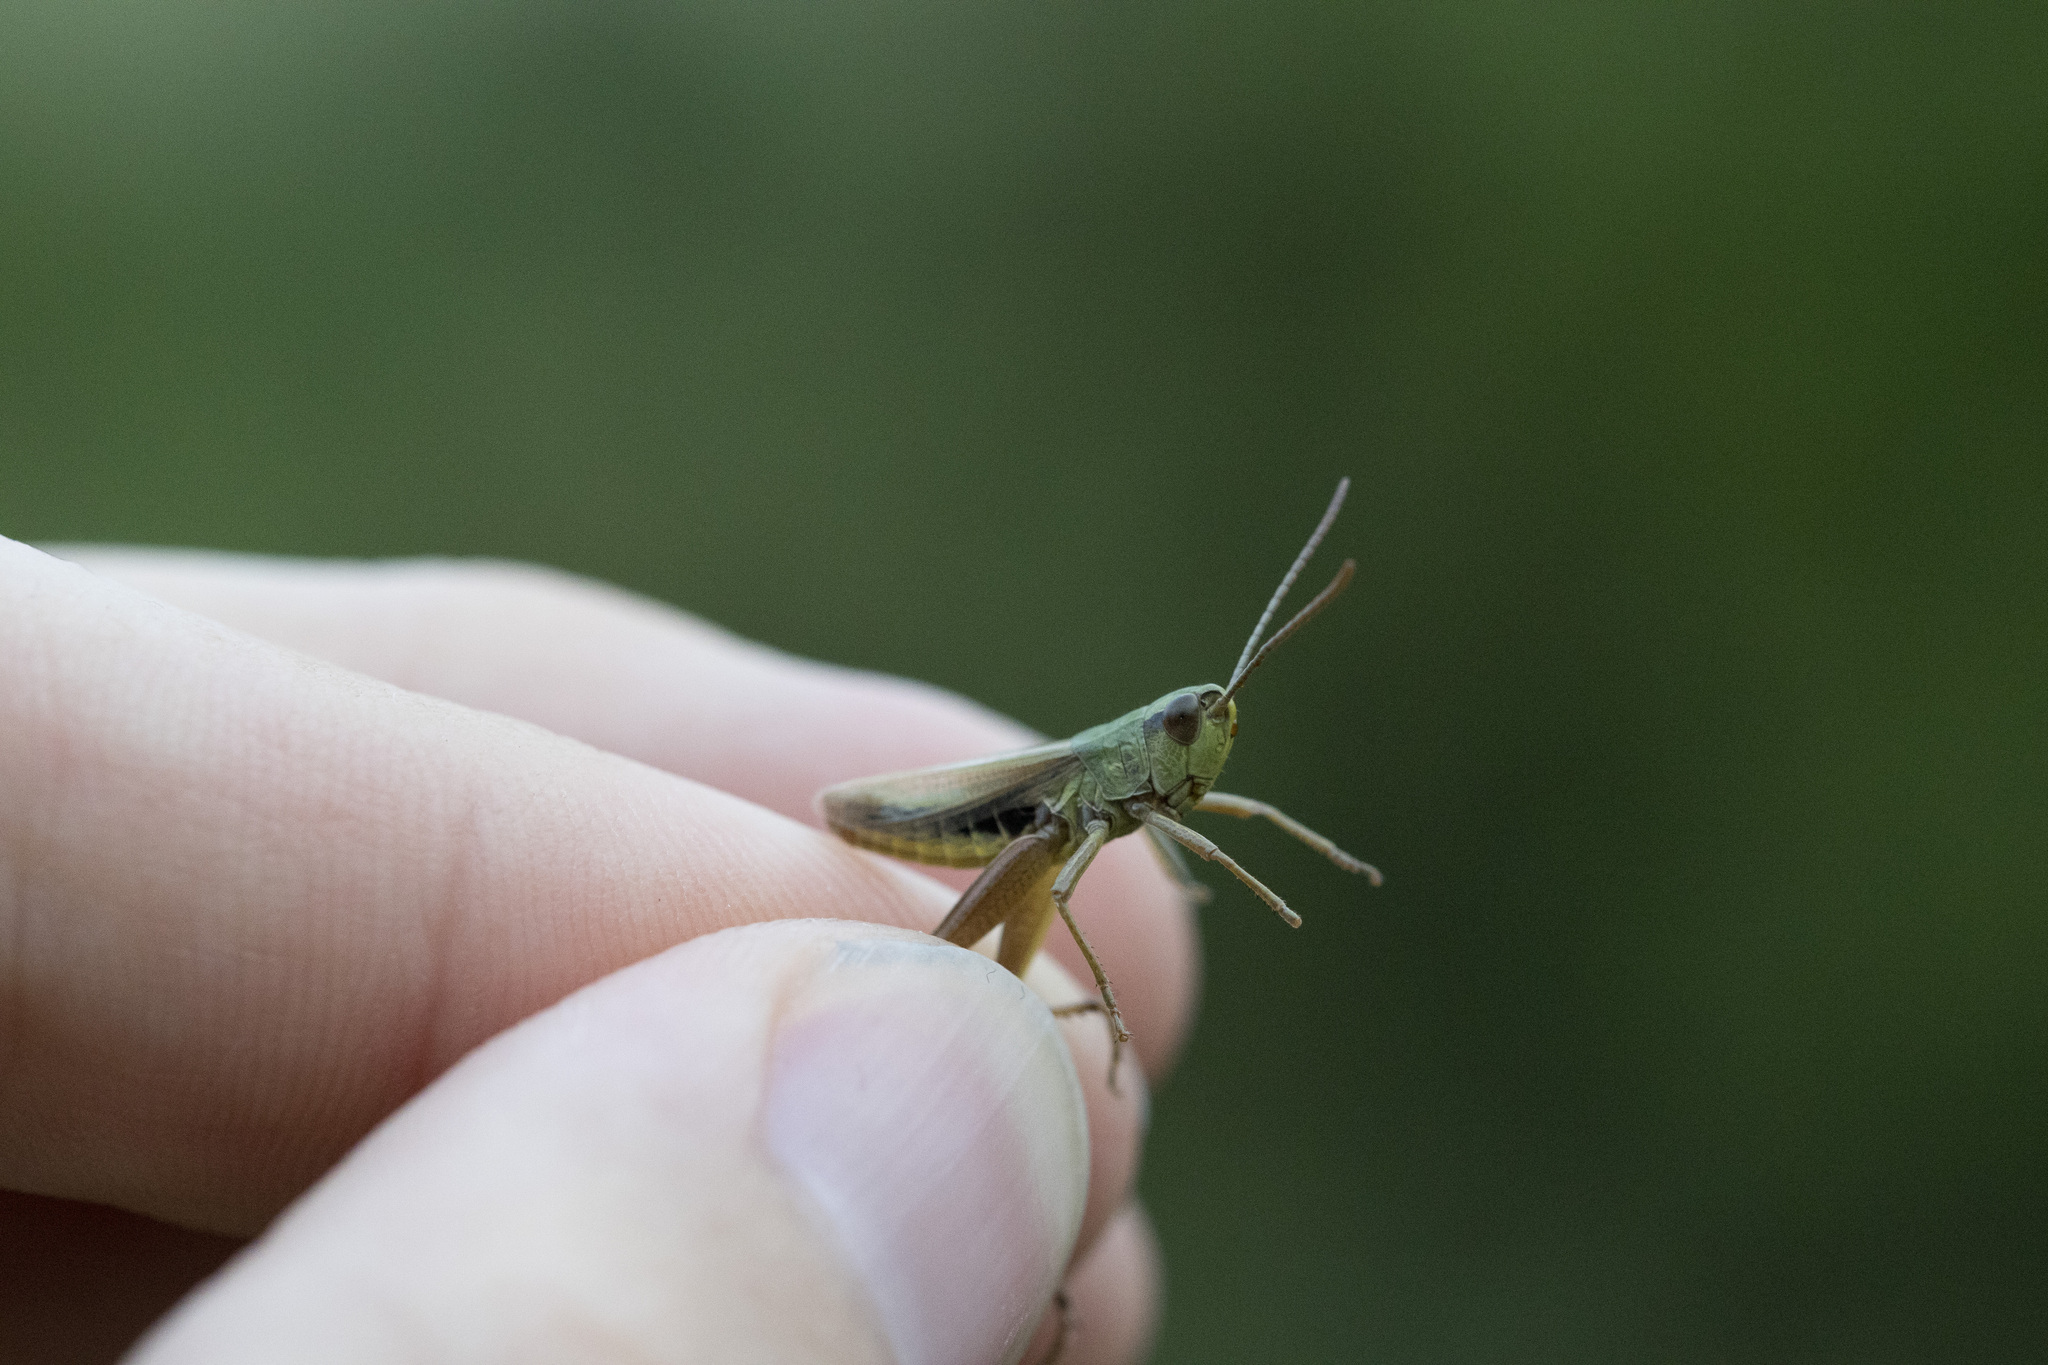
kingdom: Animalia
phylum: Arthropoda
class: Insecta
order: Orthoptera
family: Acrididae
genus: Pseudochorthippus
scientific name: Pseudochorthippus parallelus
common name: Meadow grasshopper
